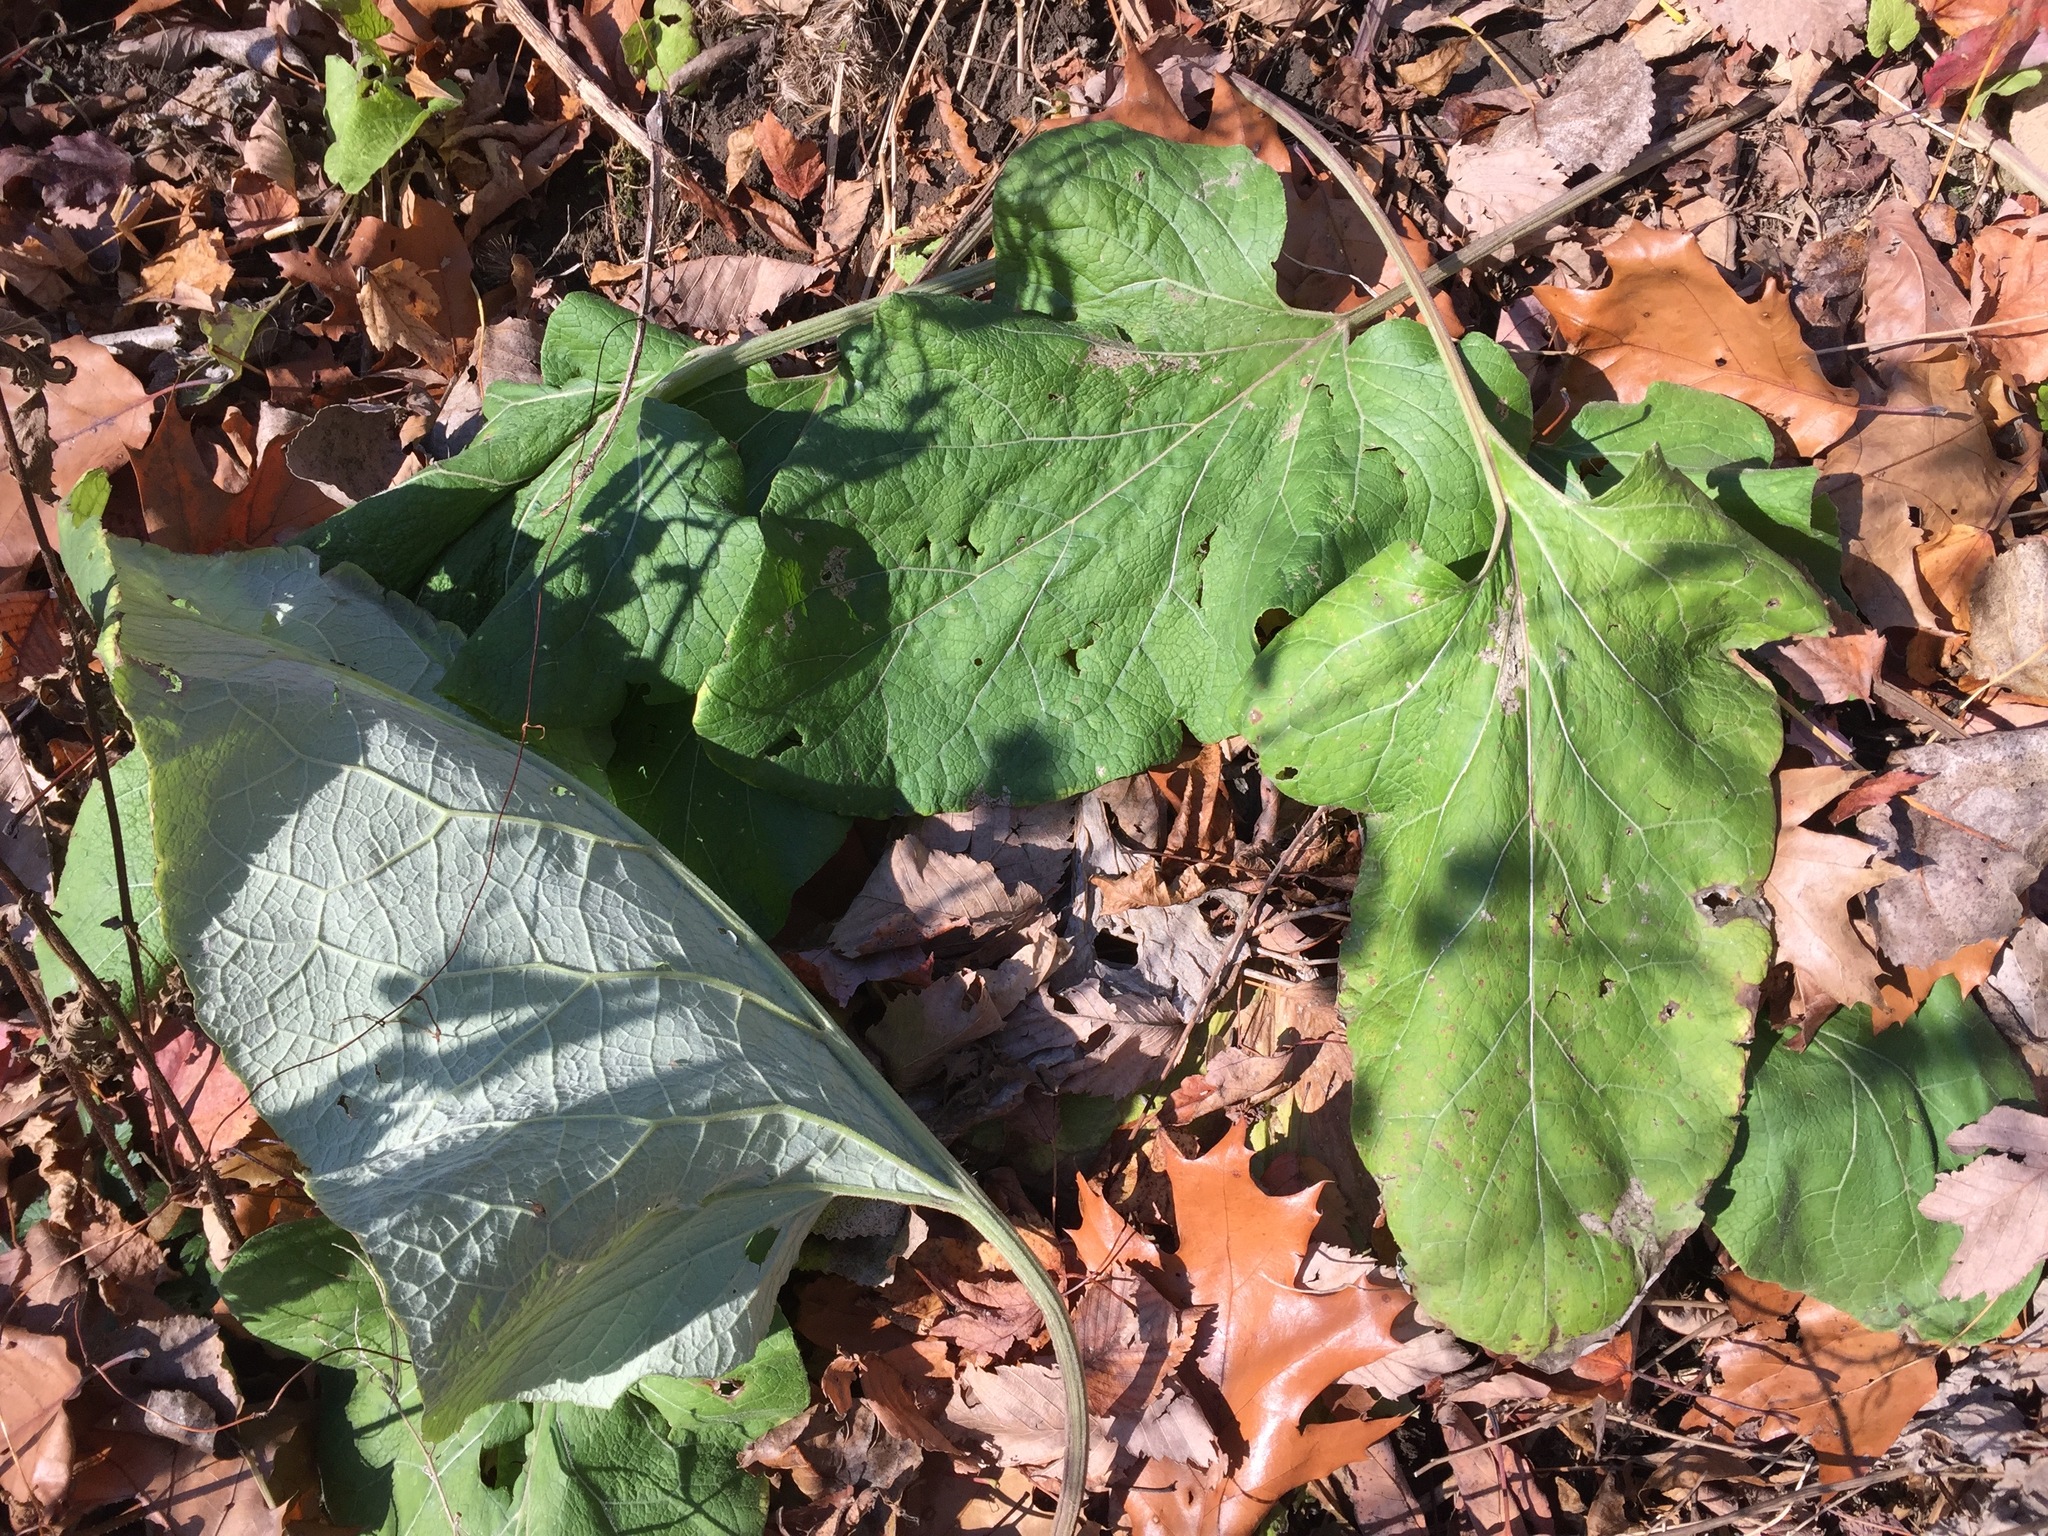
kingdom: Plantae
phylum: Tracheophyta
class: Magnoliopsida
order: Asterales
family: Asteraceae
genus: Arctium
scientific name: Arctium
